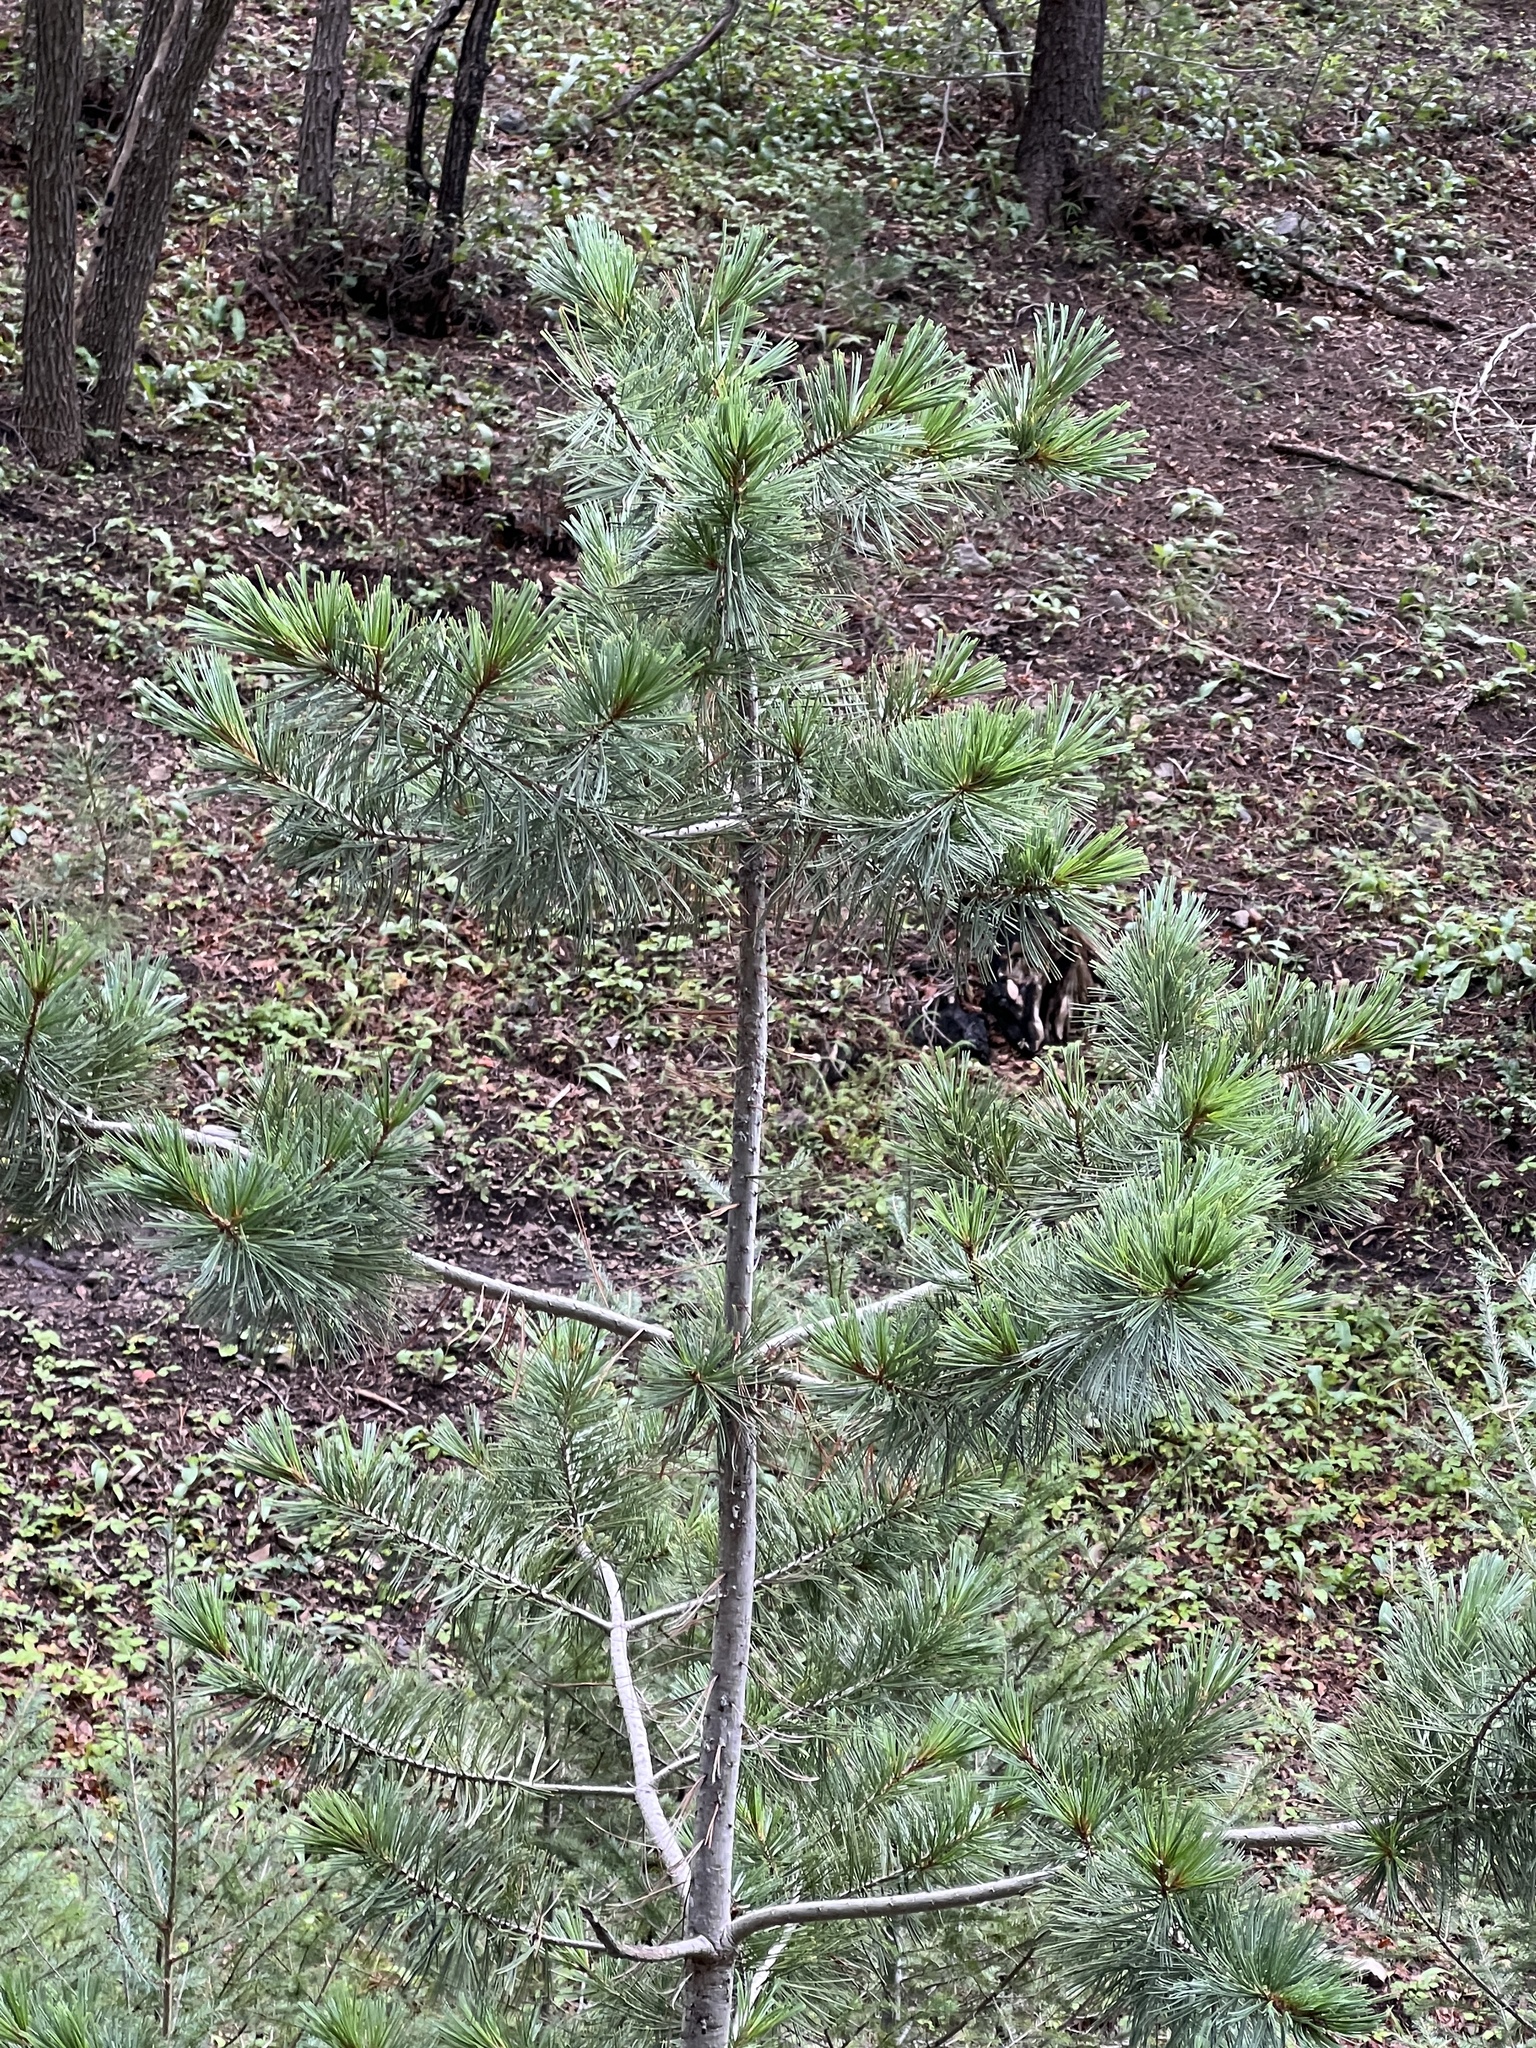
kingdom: Plantae
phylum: Tracheophyta
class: Pinopsida
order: Pinales
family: Pinaceae
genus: Pinus
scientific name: Pinus strobiformis
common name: Southwestern white pine
